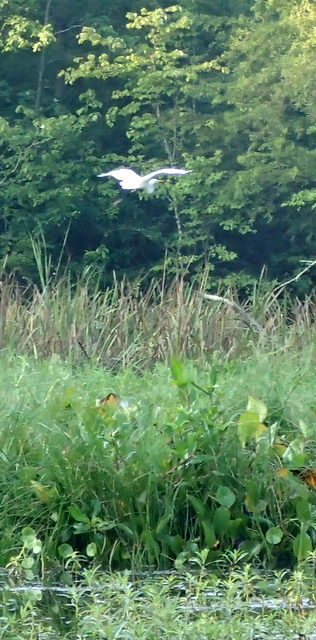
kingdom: Animalia
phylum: Chordata
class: Aves
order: Pelecaniformes
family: Ardeidae
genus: Ardea
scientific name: Ardea alba
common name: Great egret
